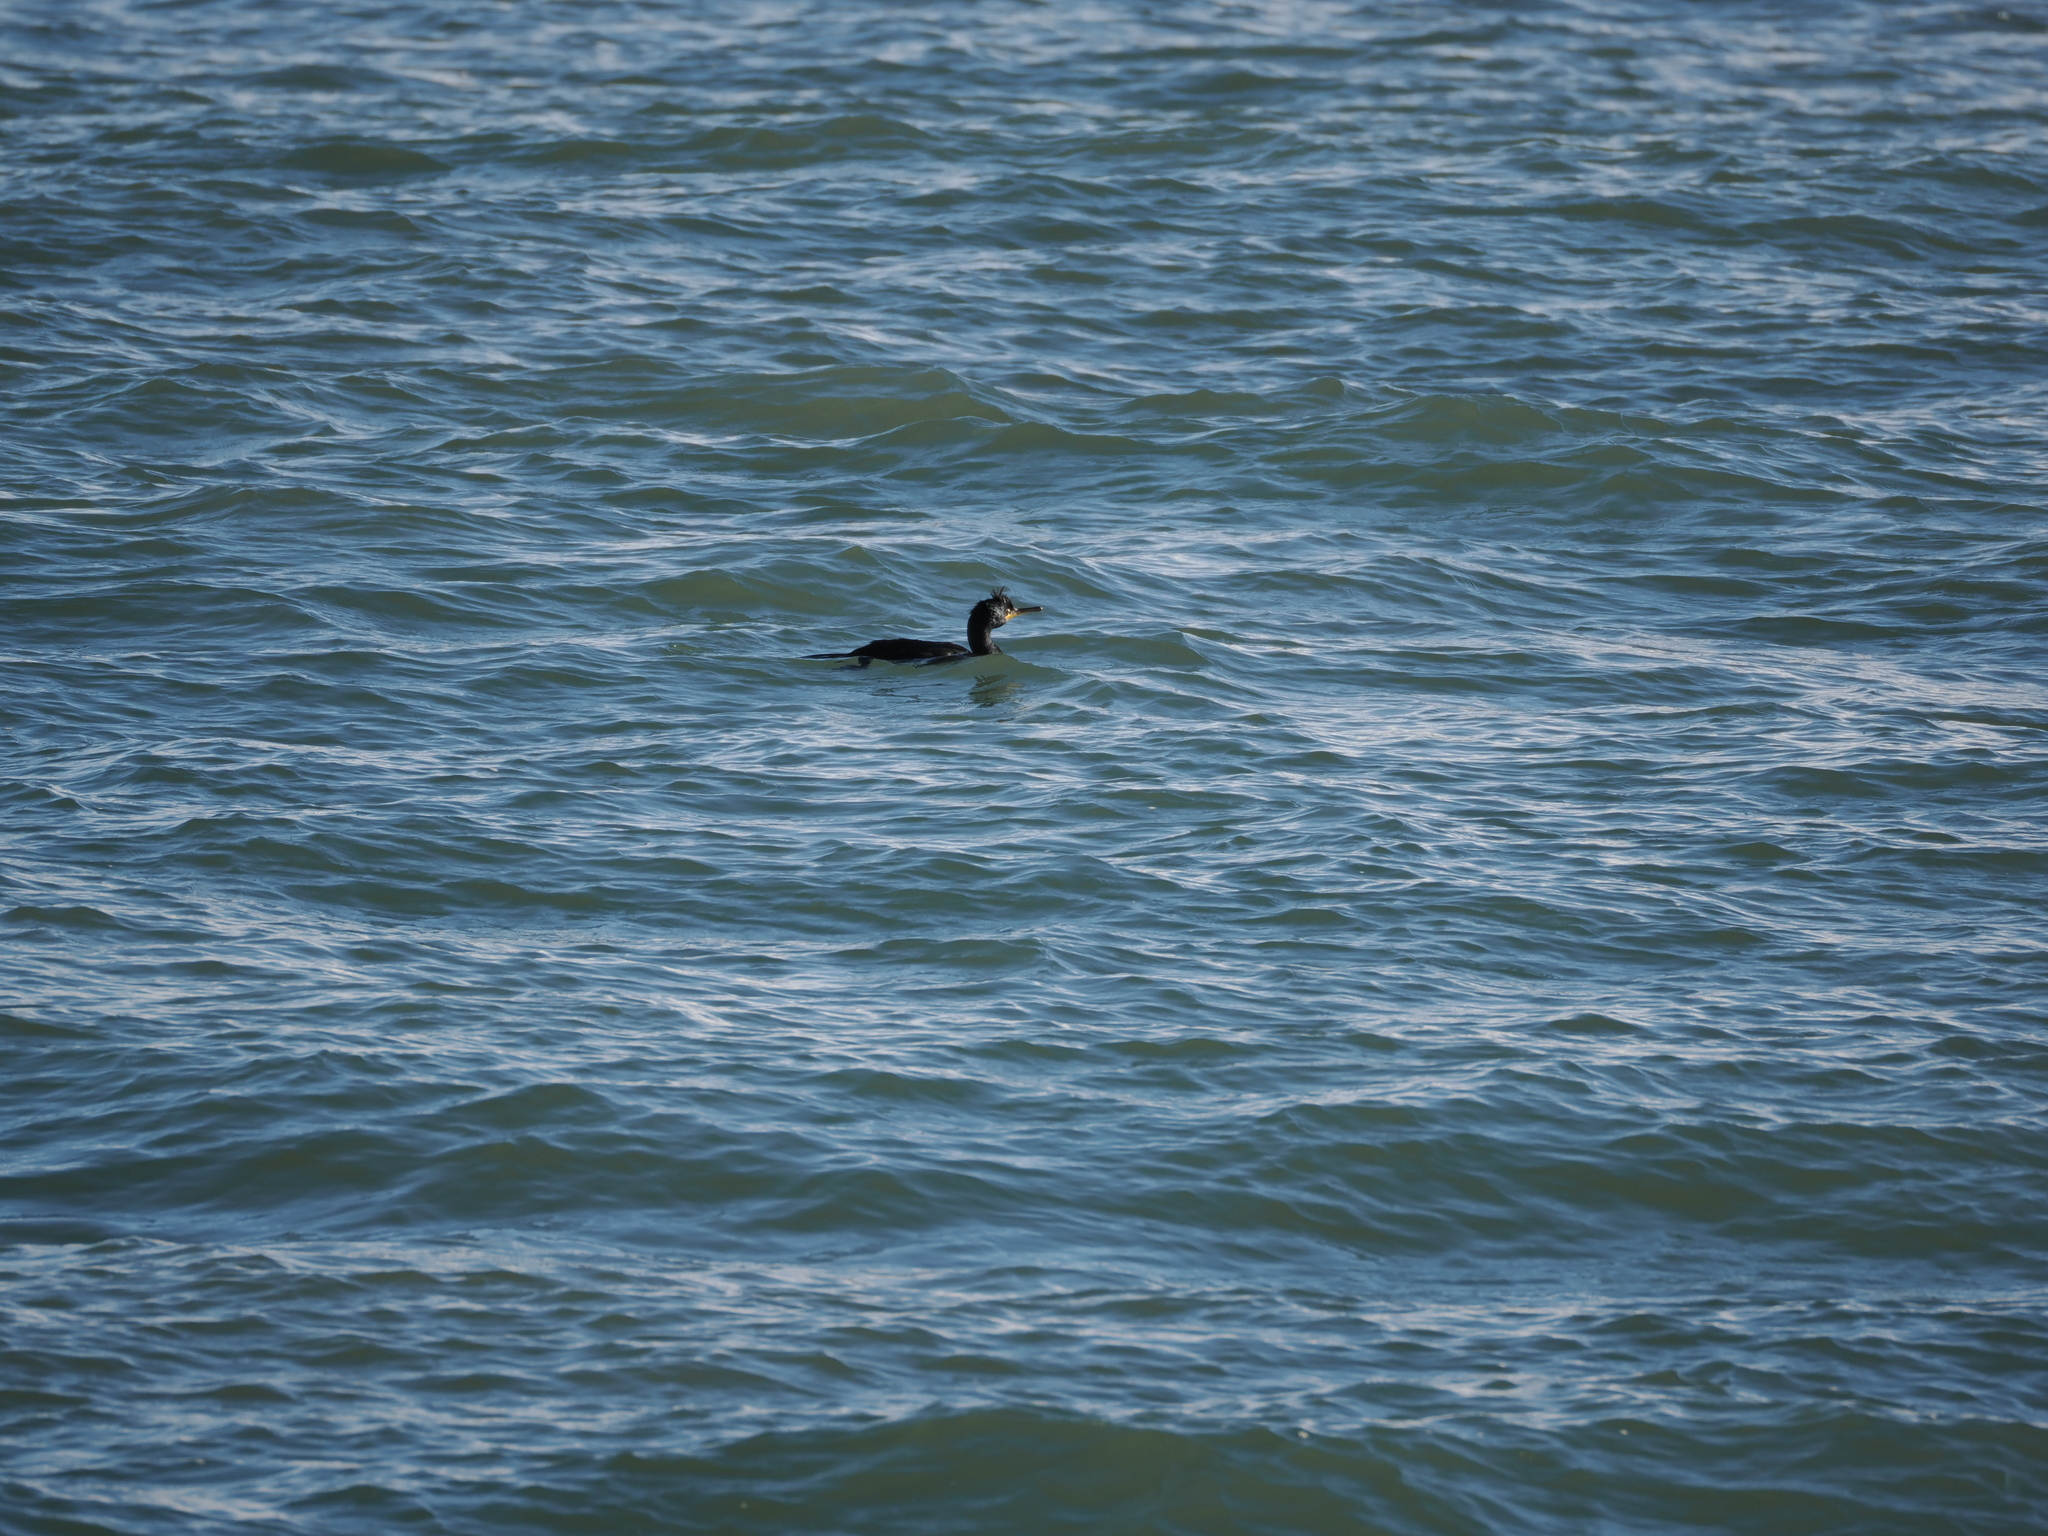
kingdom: Animalia
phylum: Chordata
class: Aves
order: Suliformes
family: Phalacrocoracidae
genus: Phalacrocorax
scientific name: Phalacrocorax aristotelis
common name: European shag
